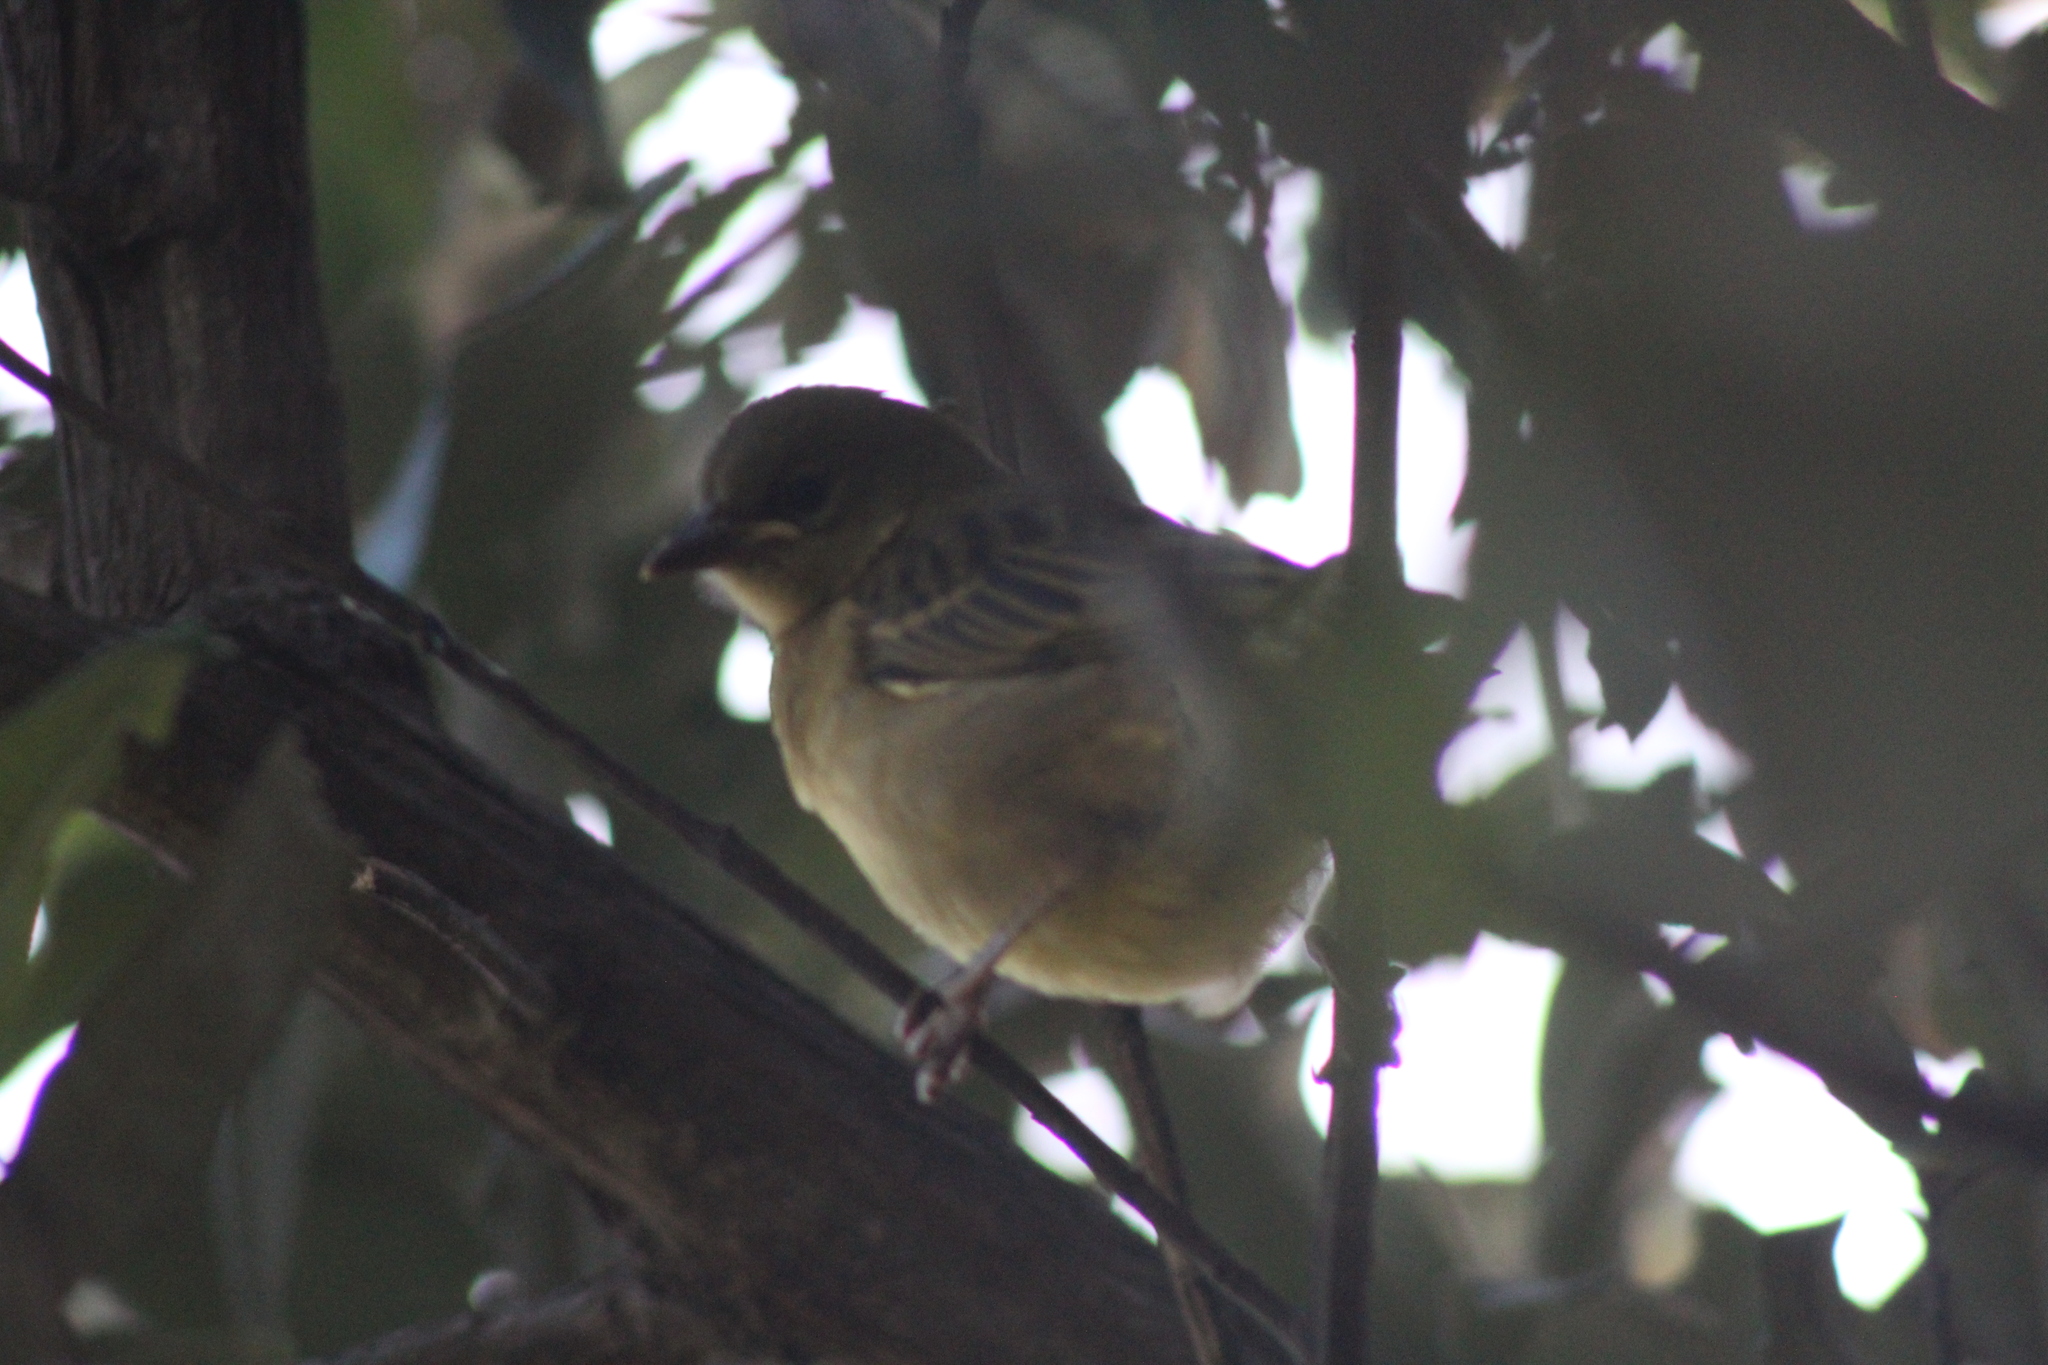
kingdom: Animalia
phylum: Chordata
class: Aves
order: Passeriformes
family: Ploceidae
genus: Ploceus
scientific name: Ploceus velatus
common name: Southern masked weaver
